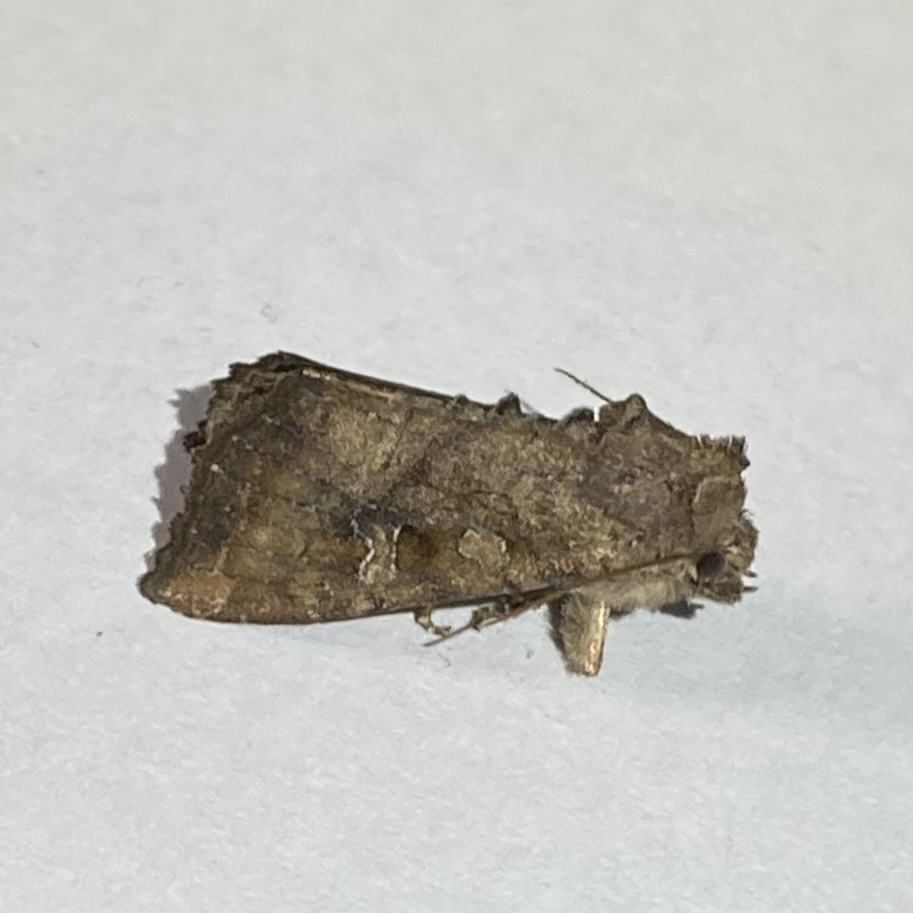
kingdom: Animalia
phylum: Arthropoda
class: Insecta
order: Lepidoptera
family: Noctuidae
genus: Loscopia
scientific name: Loscopia velata
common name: Veiled ear moth
